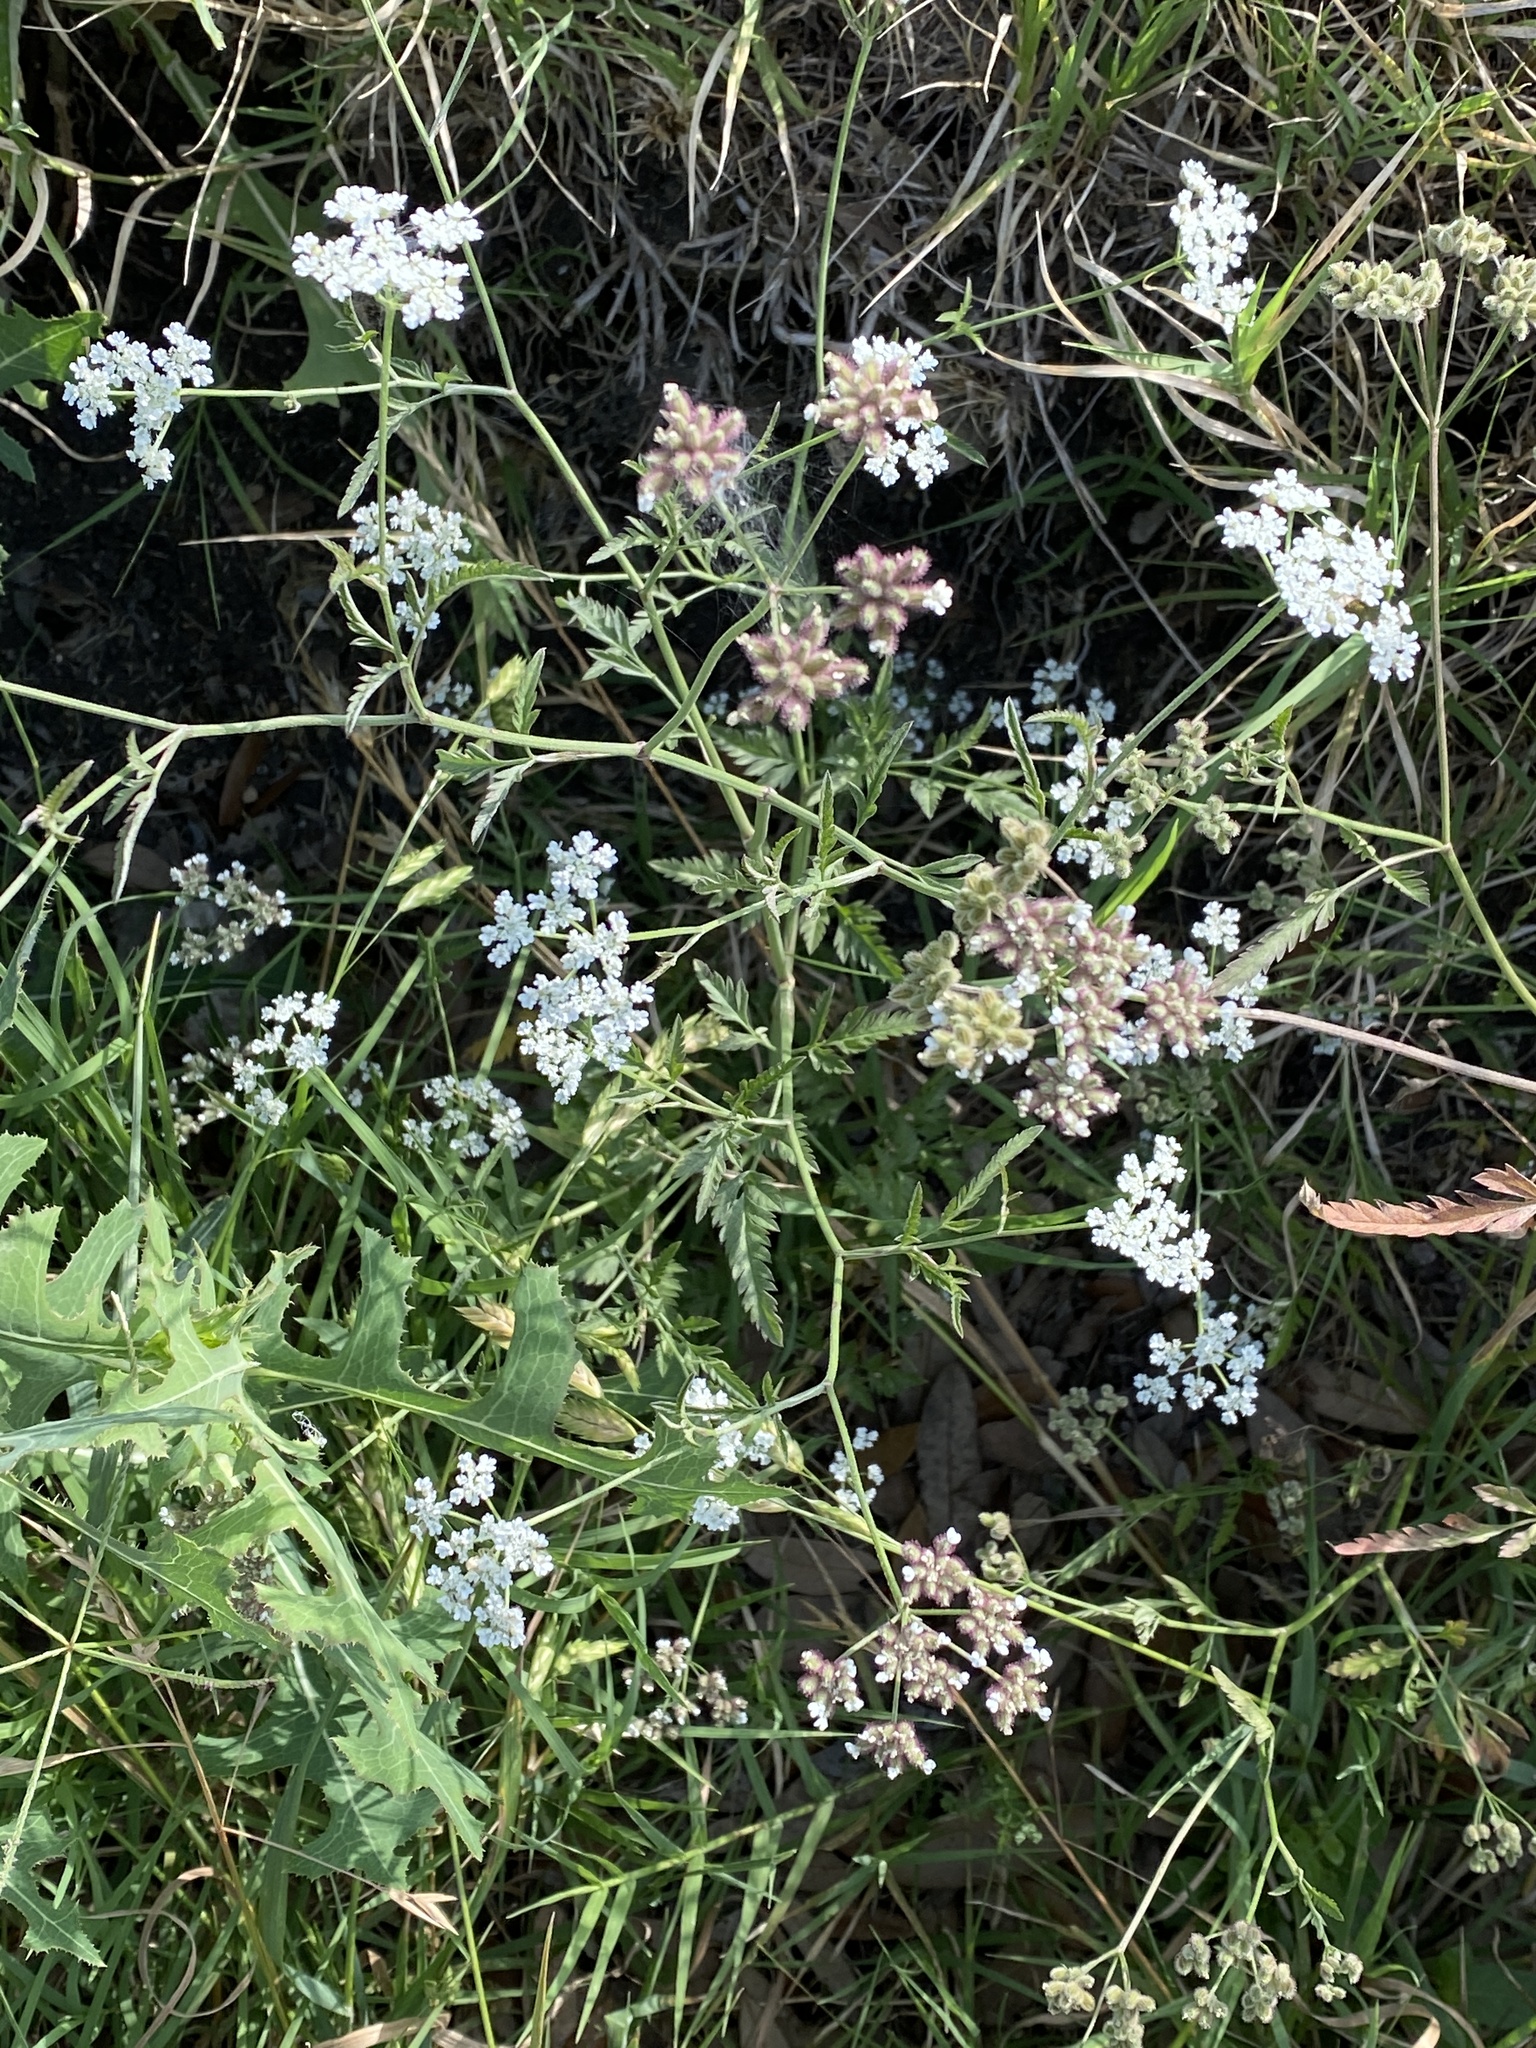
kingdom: Plantae
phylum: Tracheophyta
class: Magnoliopsida
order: Apiales
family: Apiaceae
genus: Torilis
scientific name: Torilis arvensis
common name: Spreading hedge-parsley
